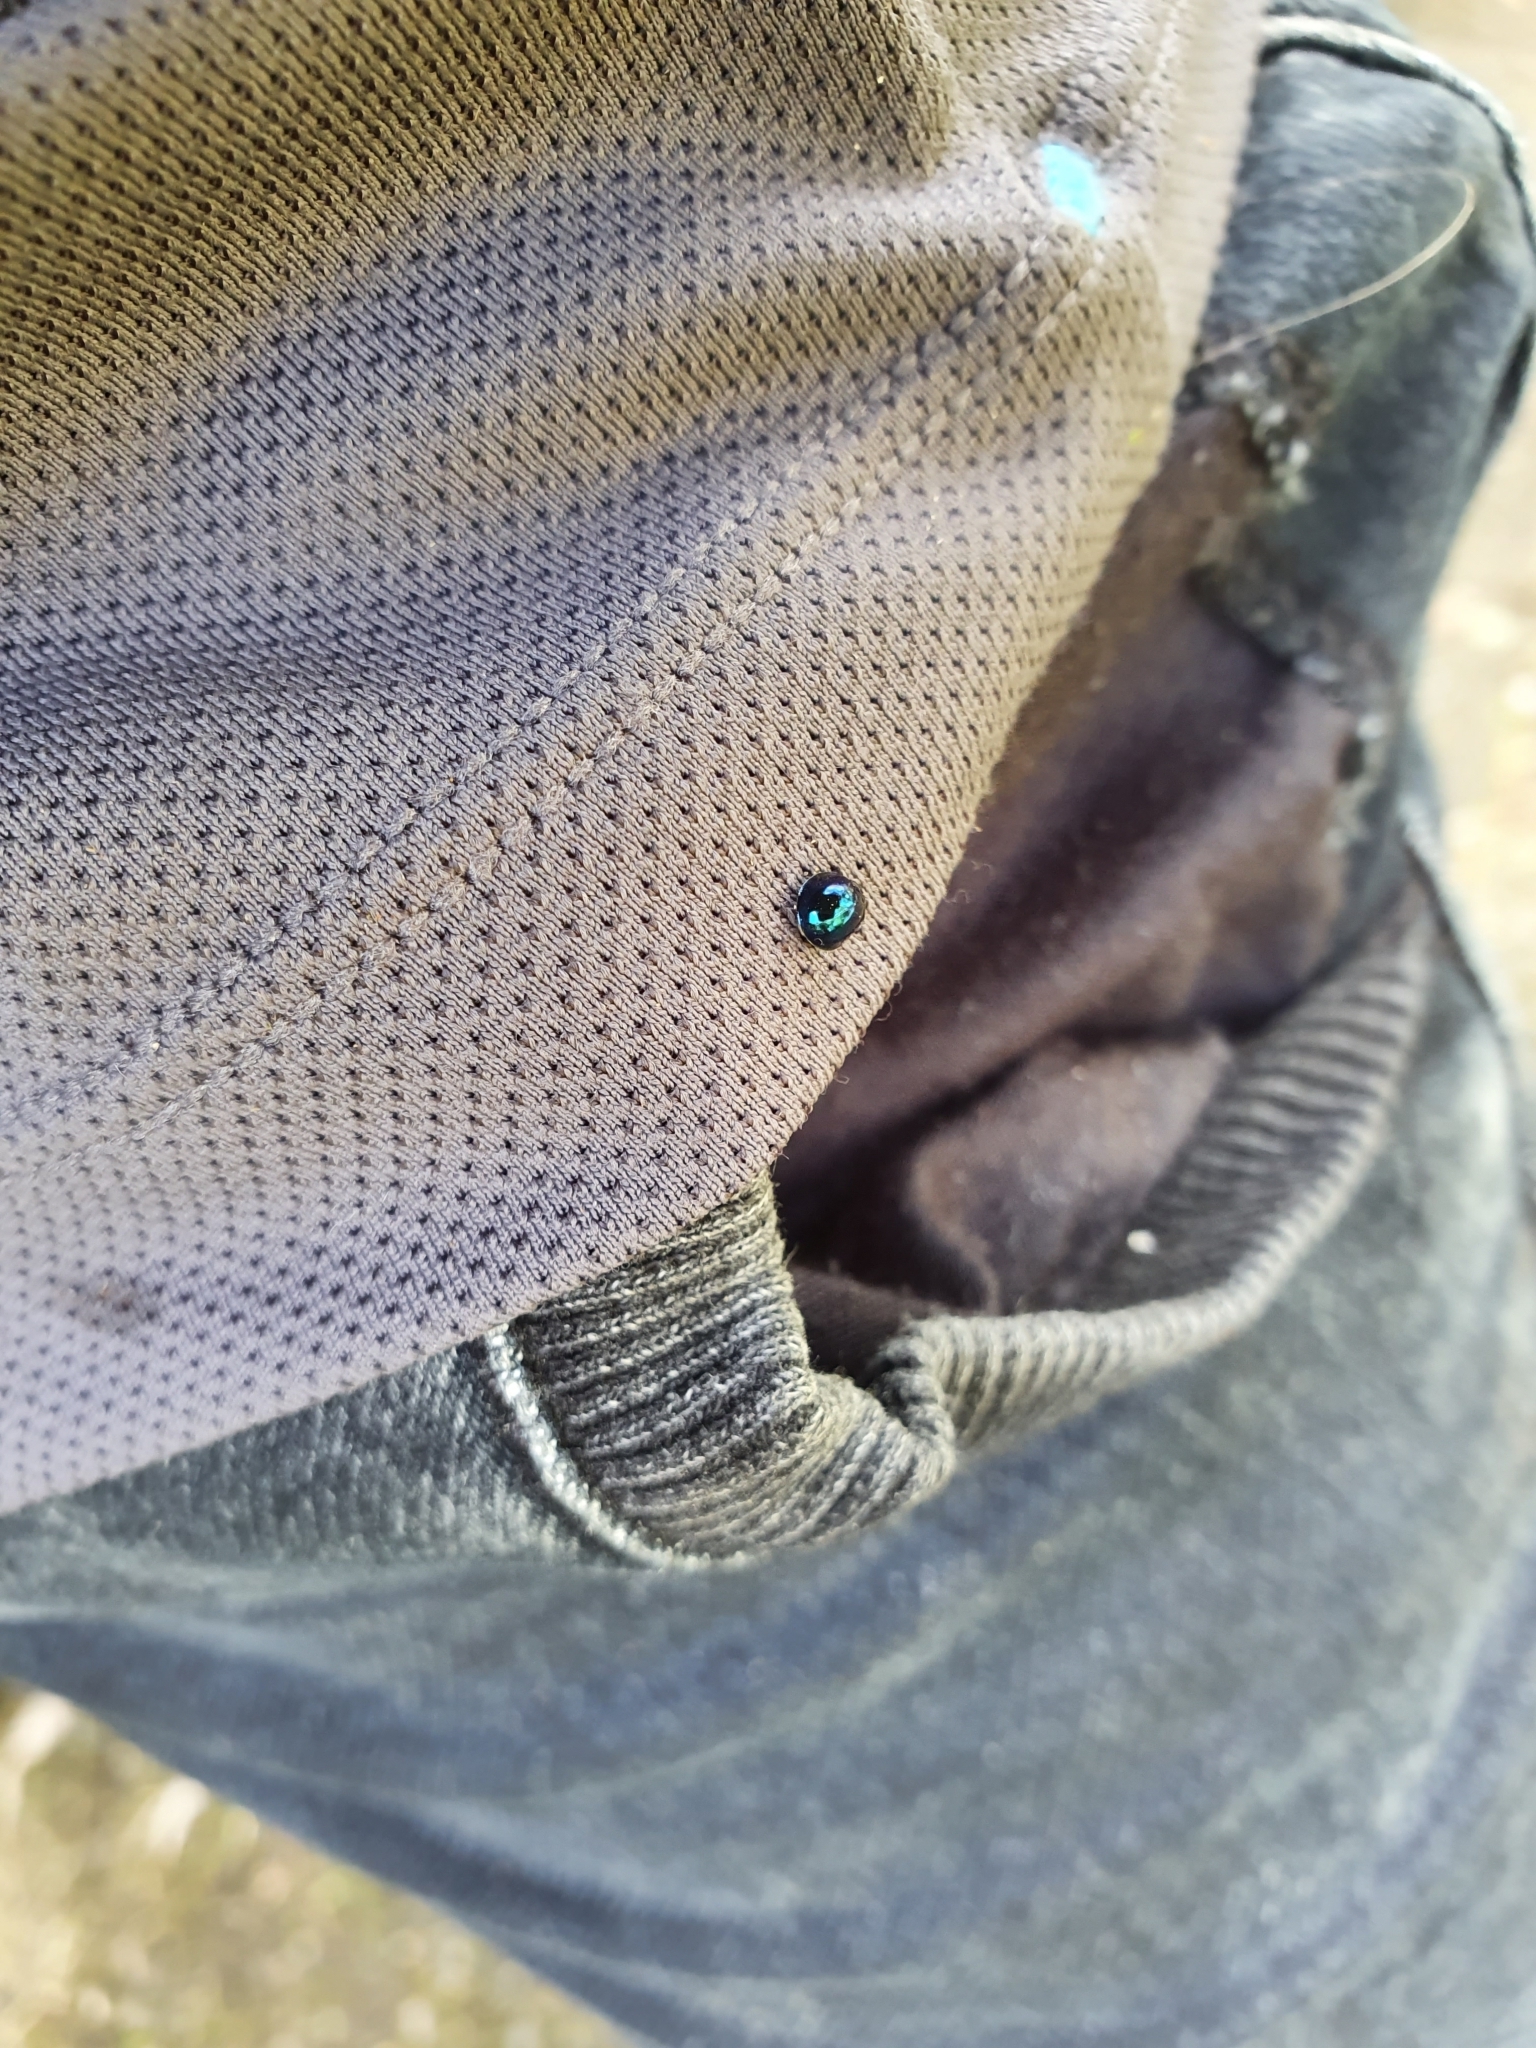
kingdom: Animalia
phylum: Arthropoda
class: Insecta
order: Coleoptera
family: Coccinellidae
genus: Halmus
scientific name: Halmus chalybeus
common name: Steel blue ladybird beetle
